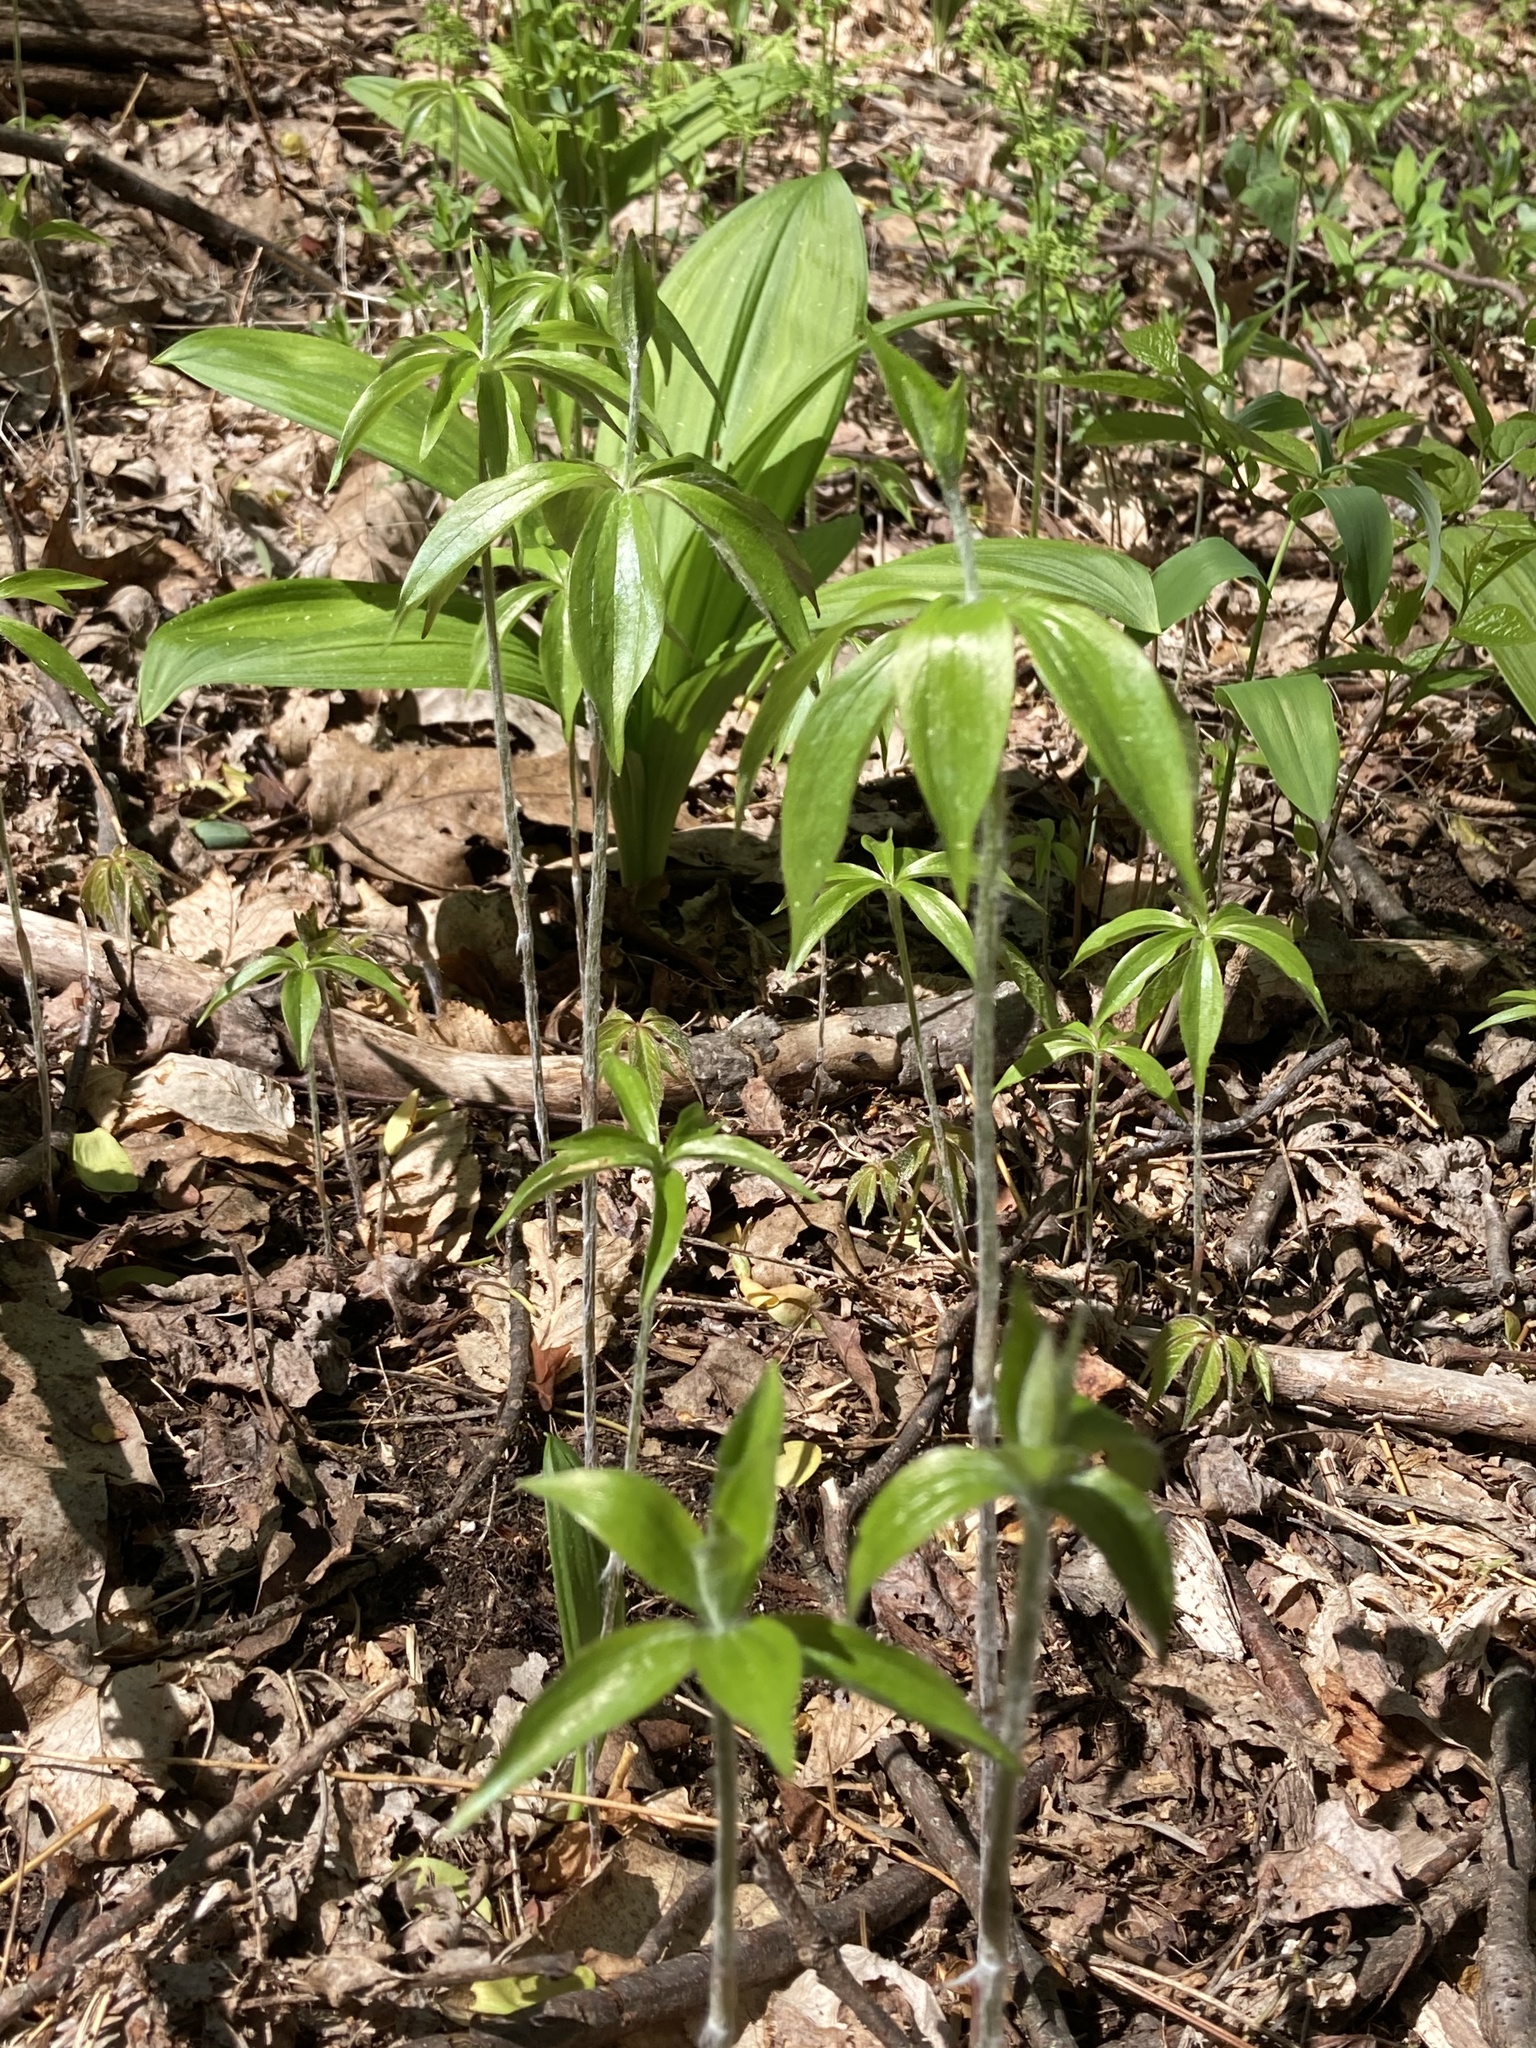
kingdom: Plantae
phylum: Tracheophyta
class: Liliopsida
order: Liliales
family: Liliaceae
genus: Medeola
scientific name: Medeola virginiana
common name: Indian cucumber-root
